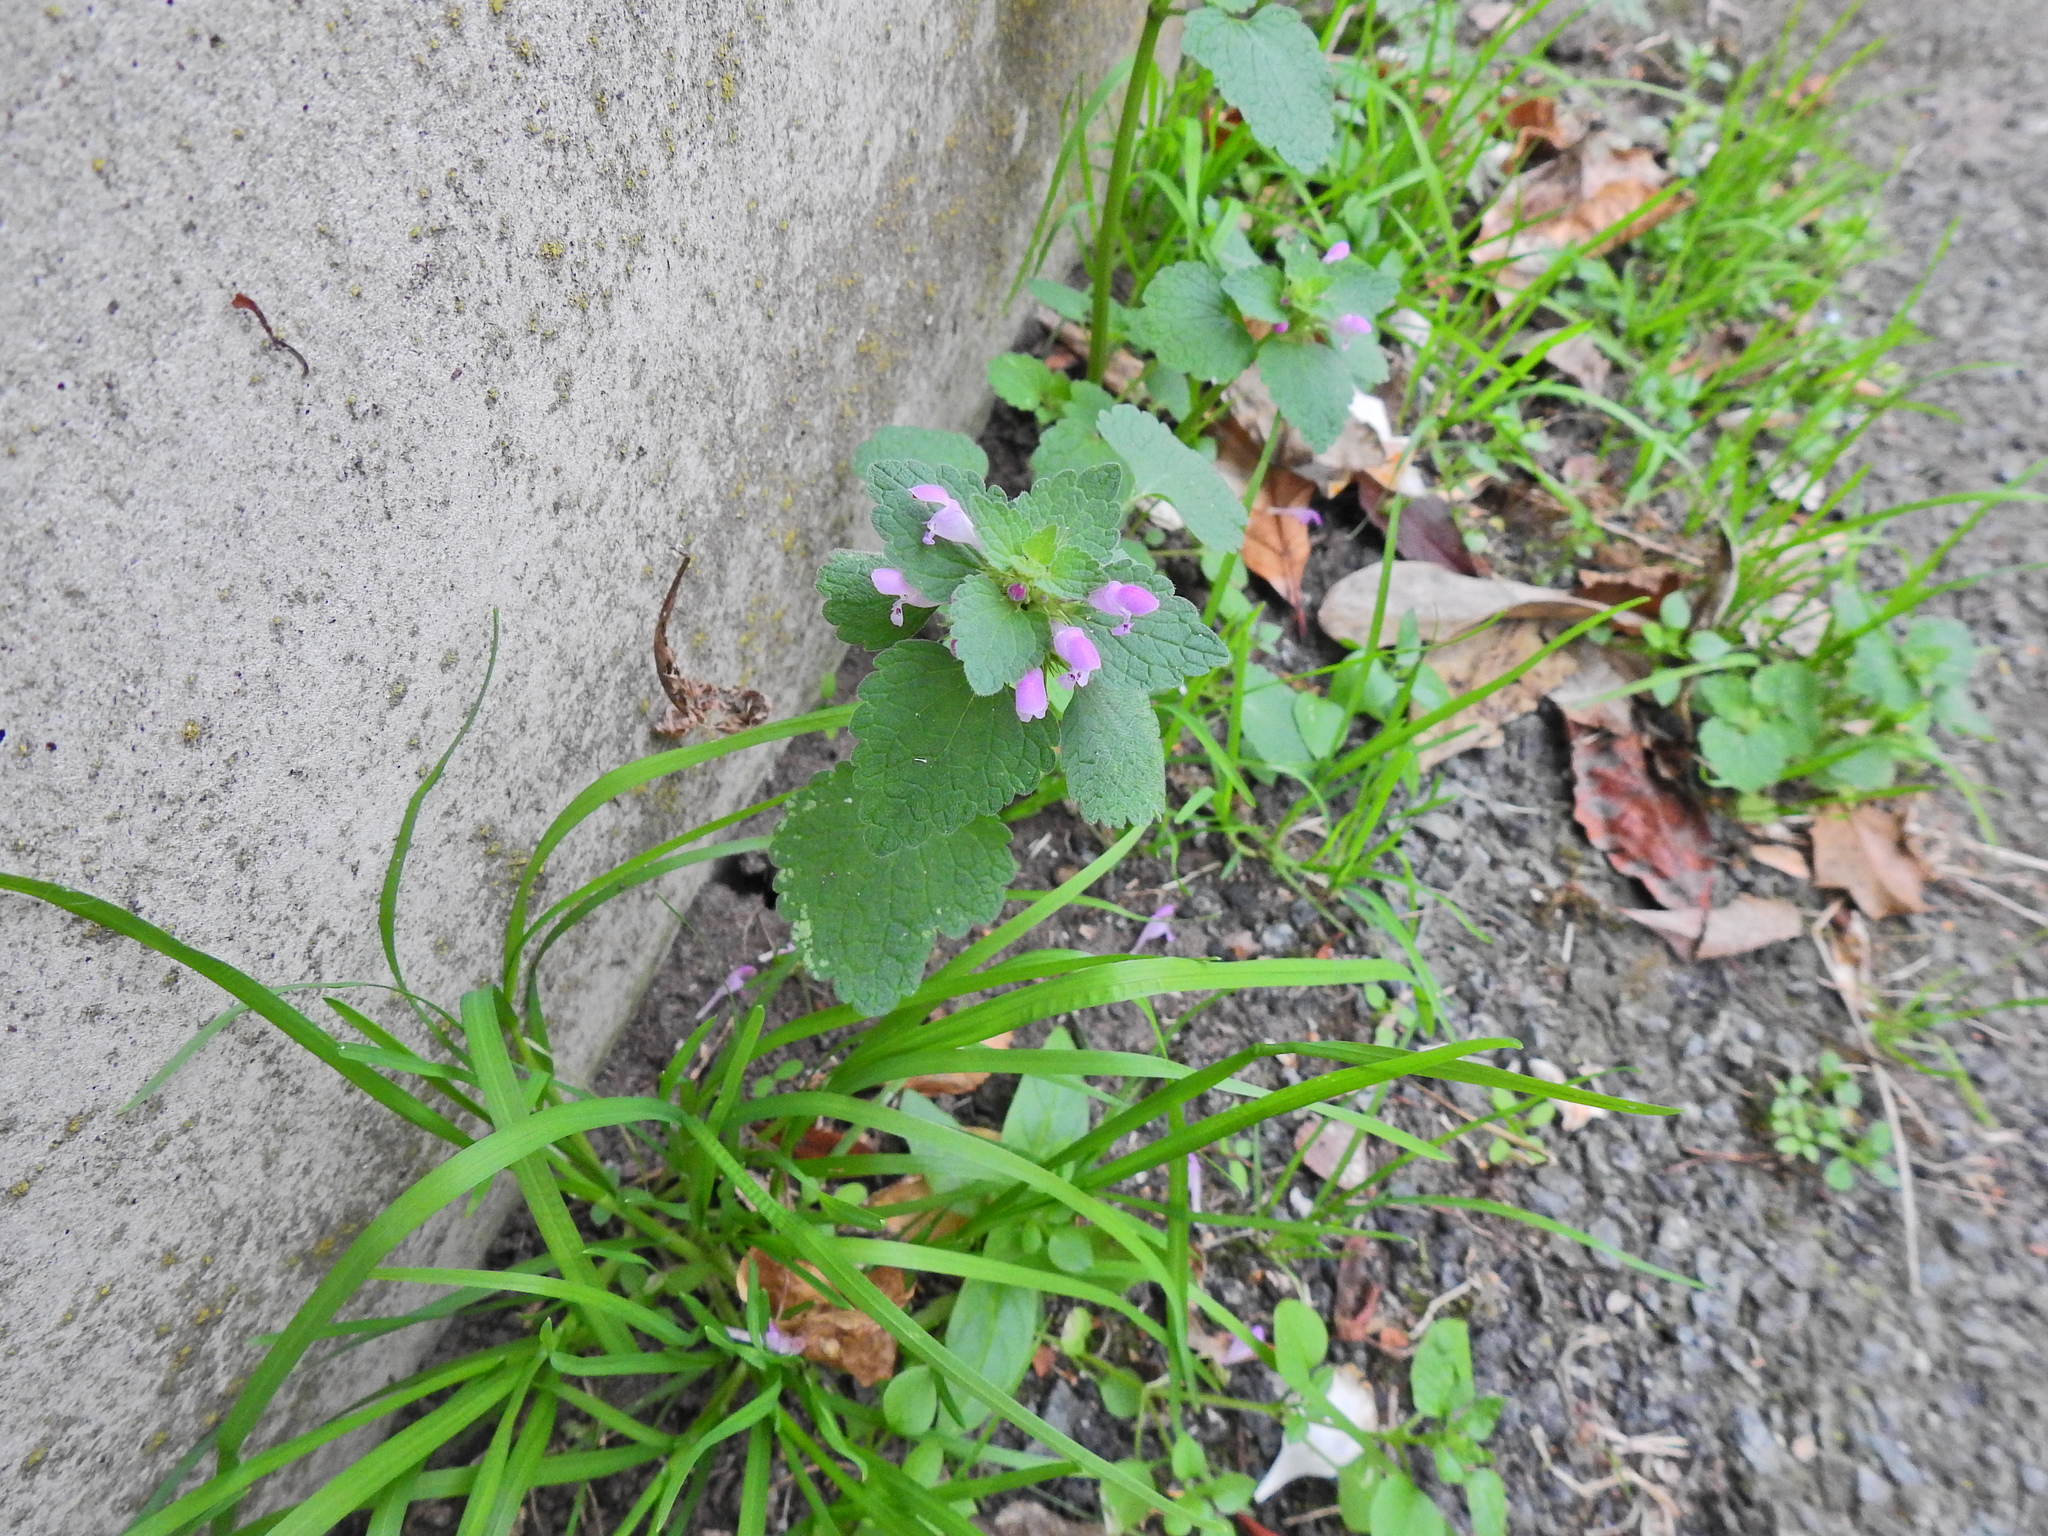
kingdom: Plantae
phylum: Tracheophyta
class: Magnoliopsida
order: Lamiales
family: Lamiaceae
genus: Lamium
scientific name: Lamium purpureum
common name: Red dead-nettle
